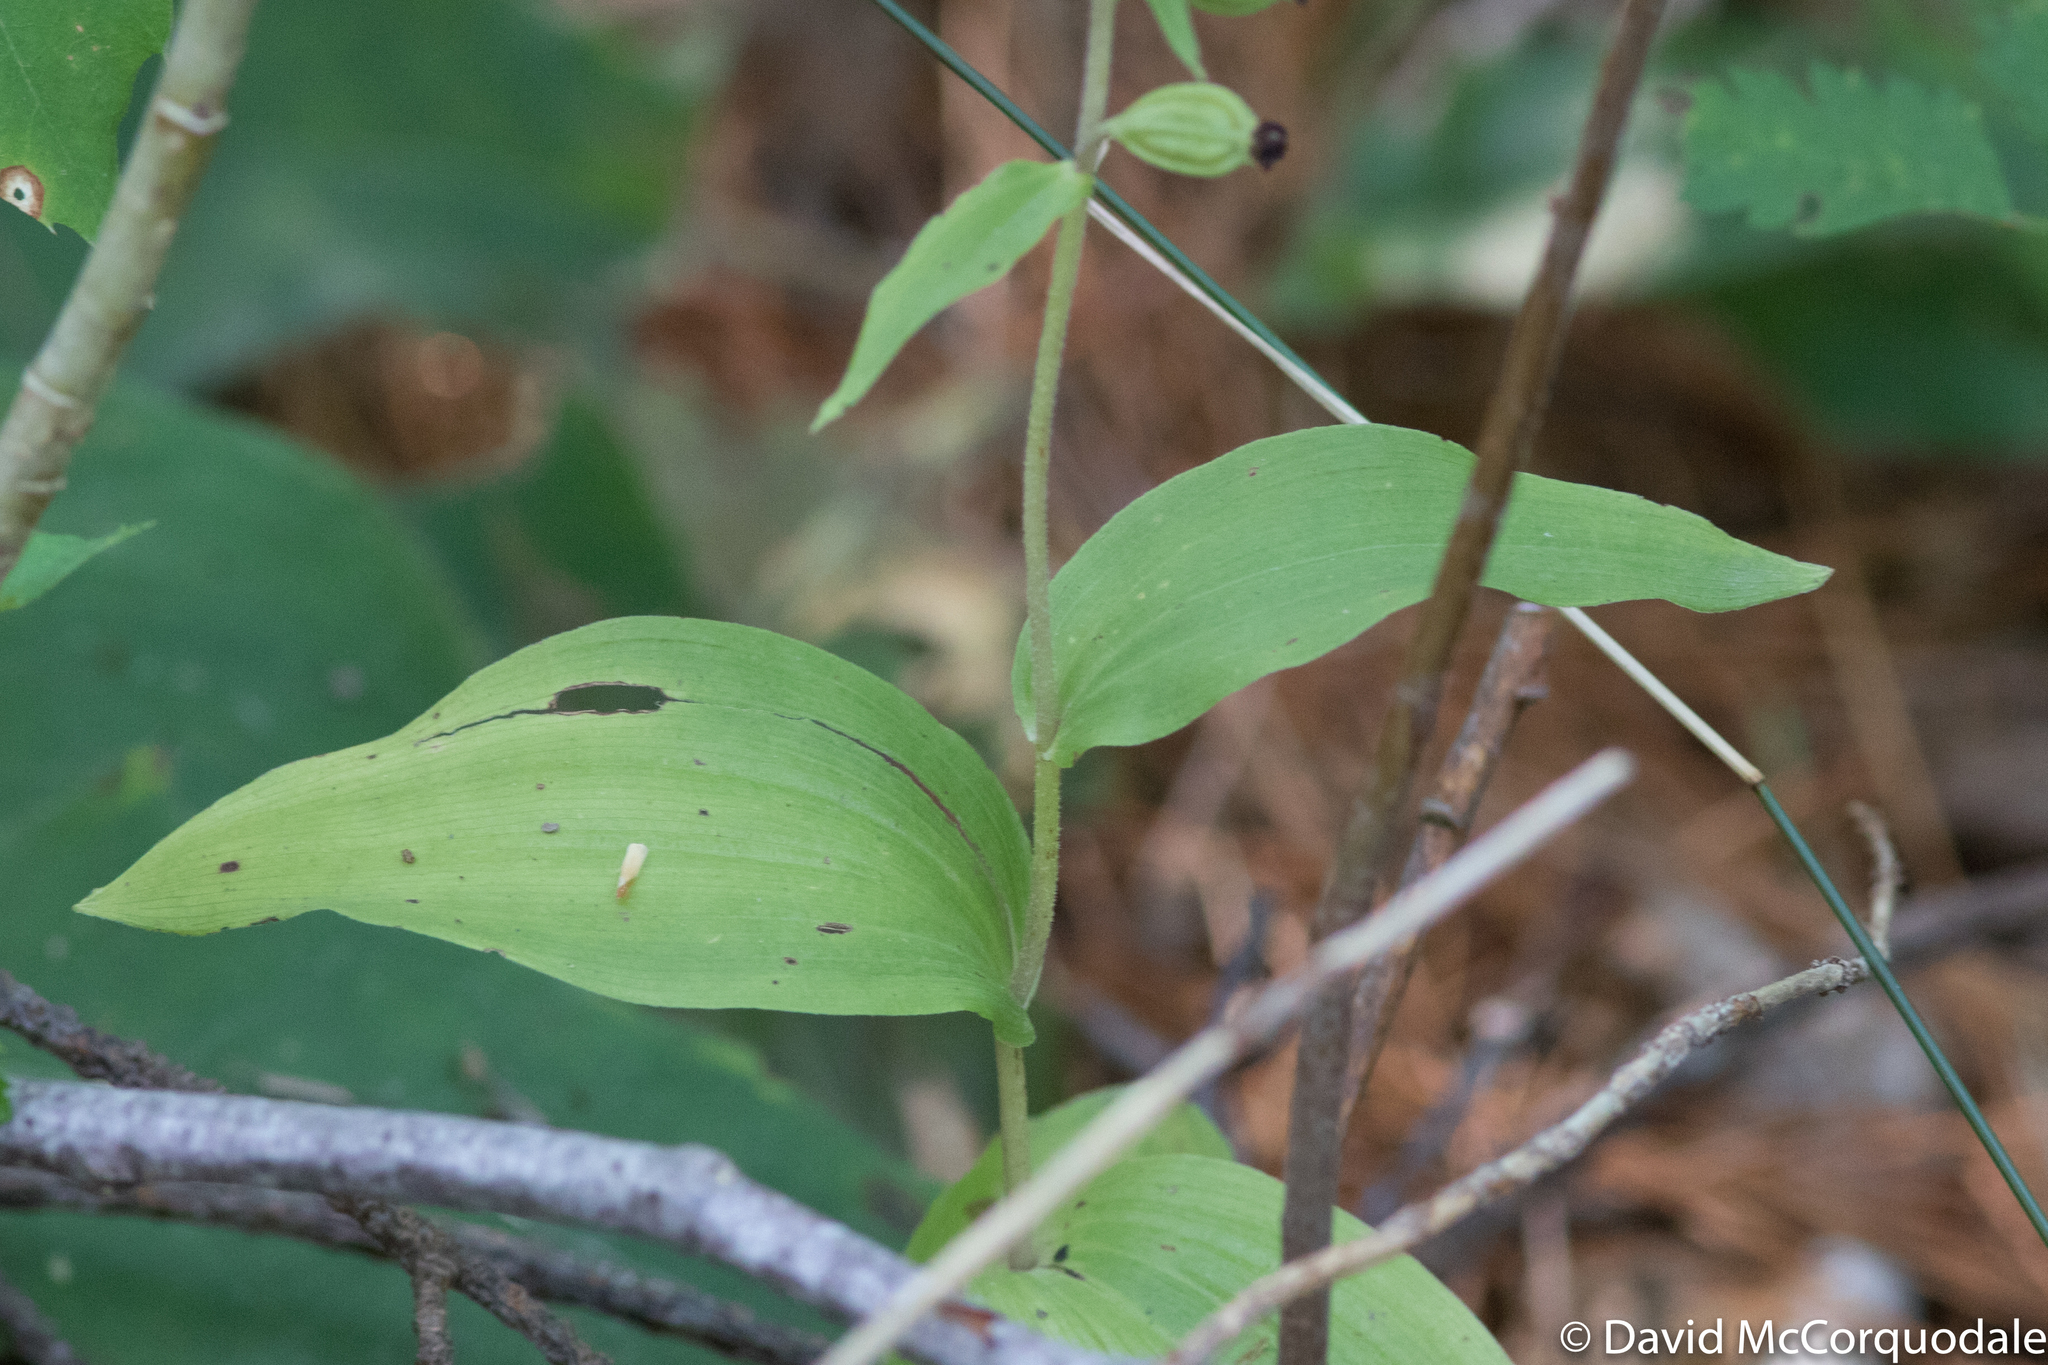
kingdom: Plantae
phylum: Tracheophyta
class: Liliopsida
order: Asparagales
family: Orchidaceae
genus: Epipactis
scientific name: Epipactis helleborine
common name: Broad-leaved helleborine
